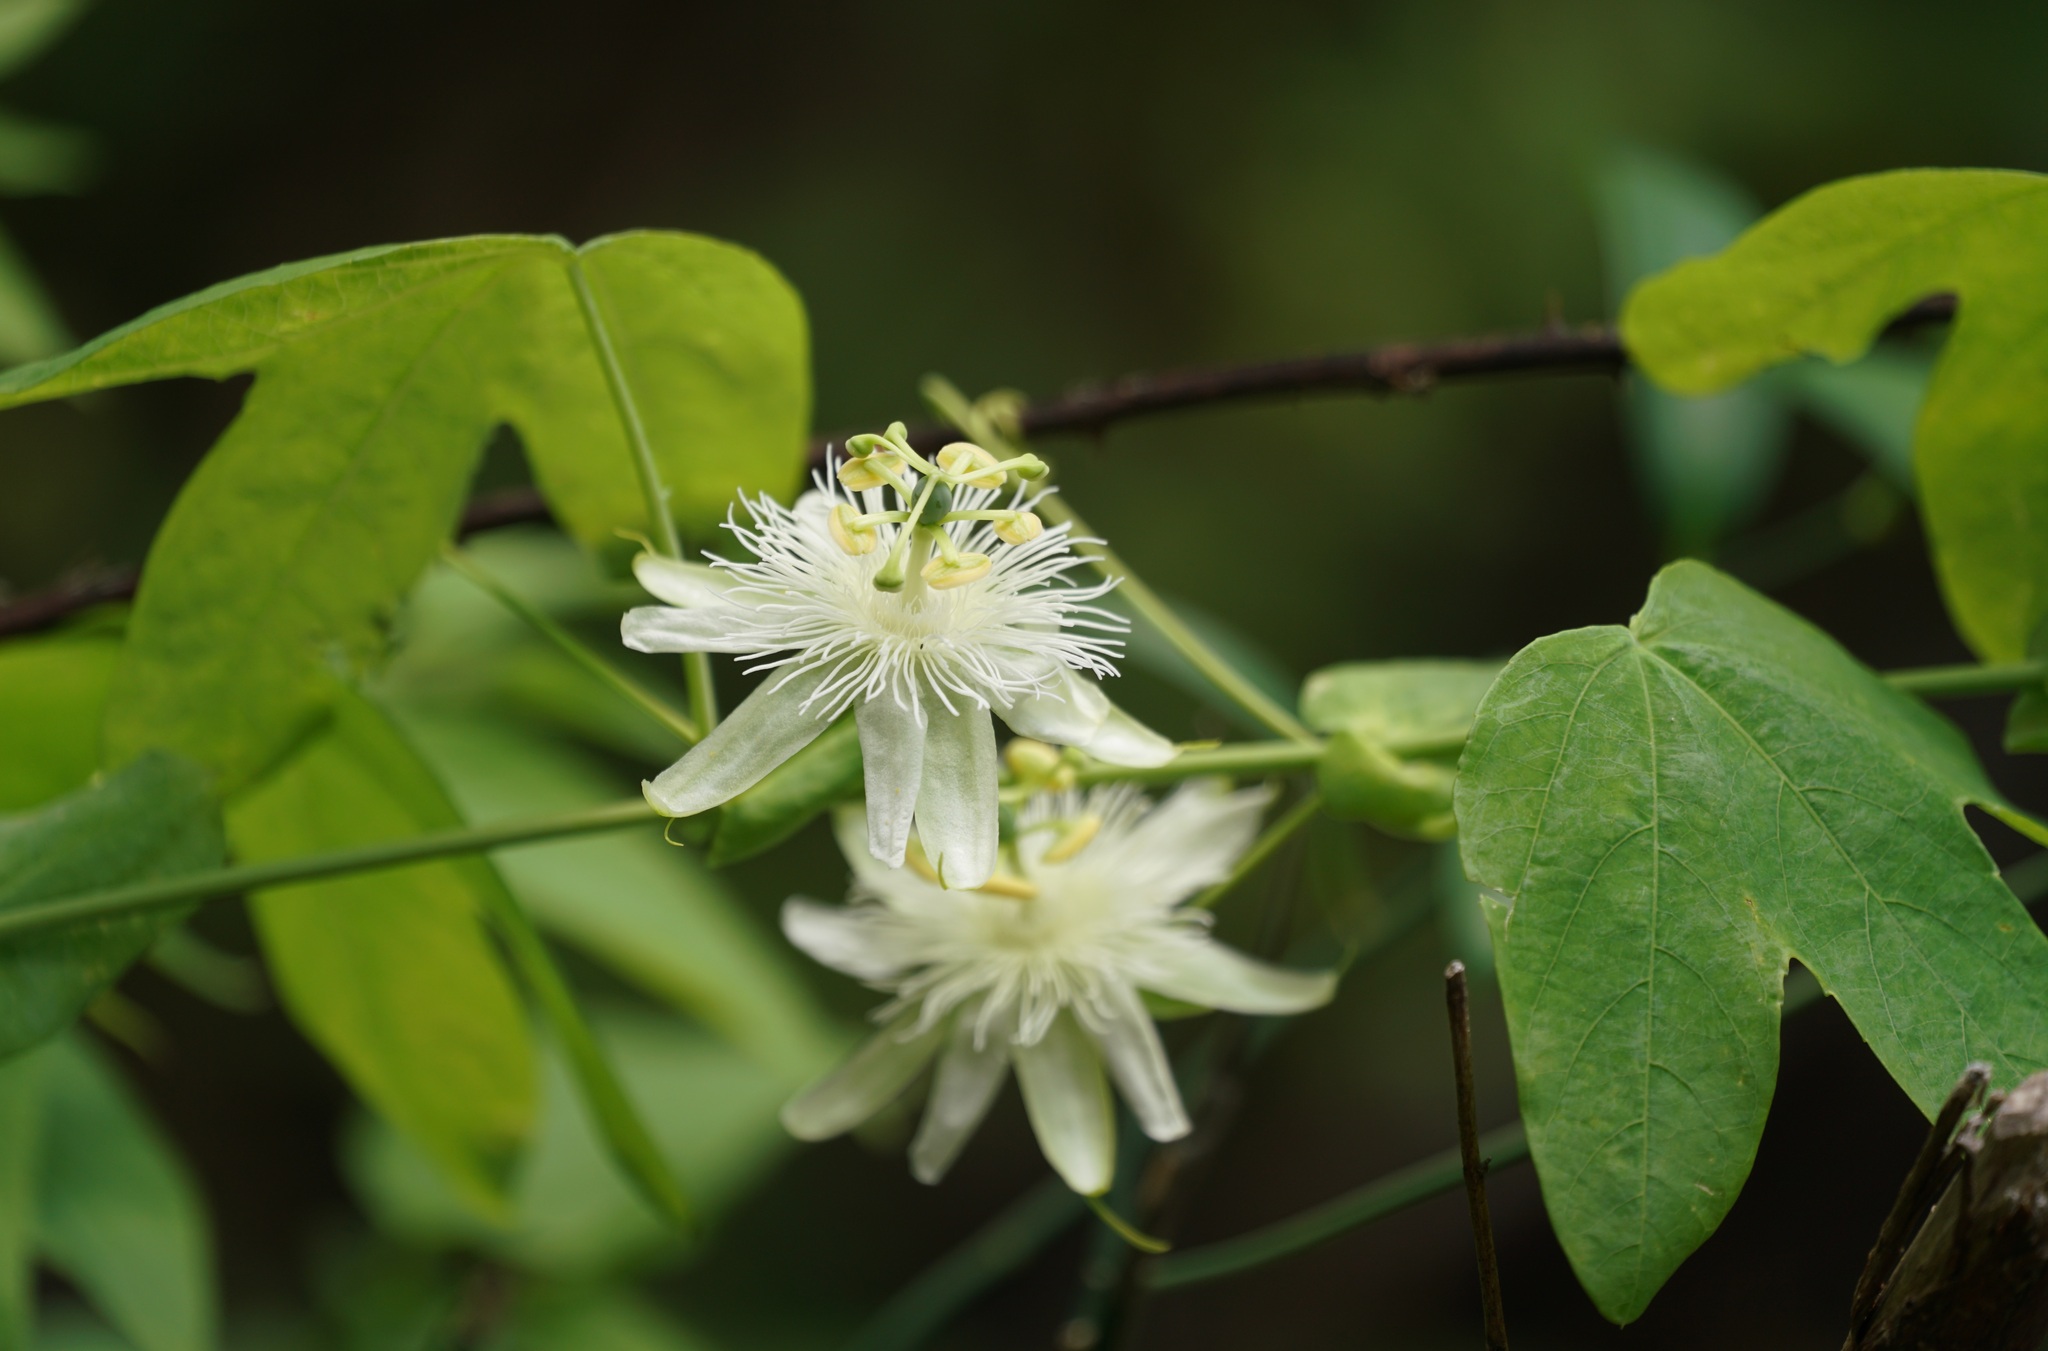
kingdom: Plantae
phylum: Tracheophyta
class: Magnoliopsida
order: Malpighiales
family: Passifloraceae
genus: Passiflora
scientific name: Passiflora subpeltata
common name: White passionflower
